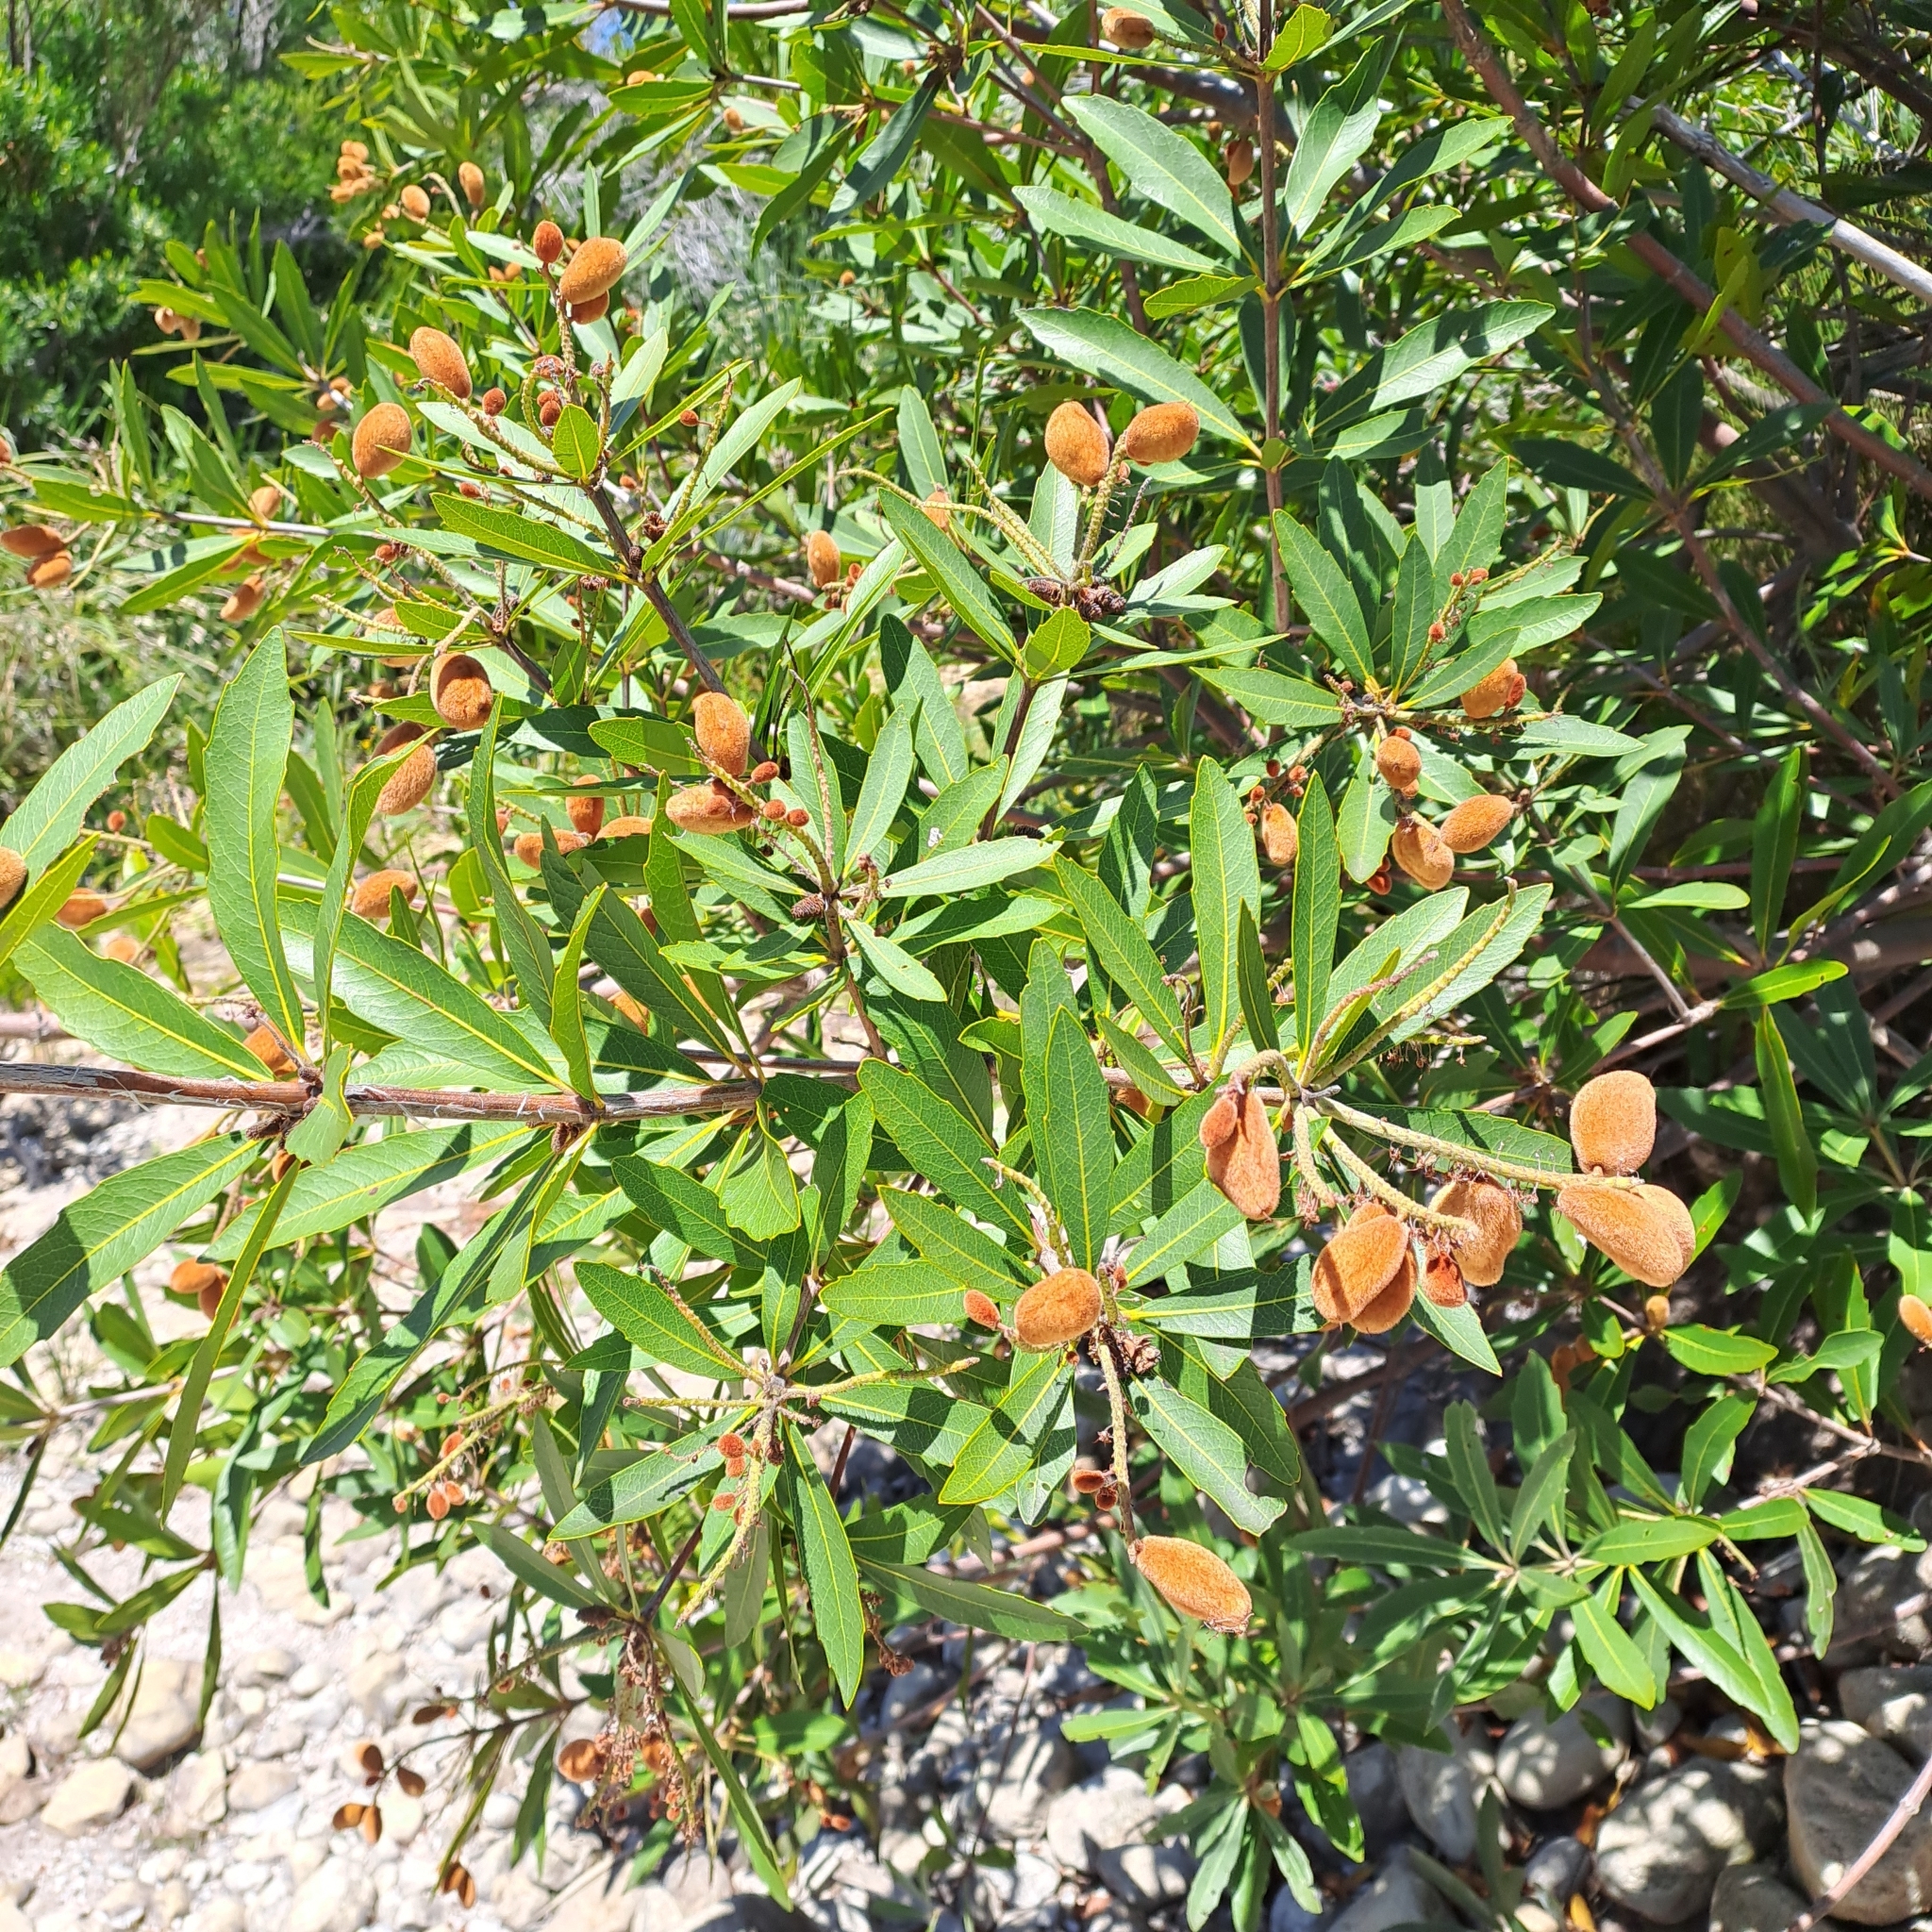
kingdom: Plantae
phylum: Tracheophyta
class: Magnoliopsida
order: Proteales
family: Proteaceae
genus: Brabejum
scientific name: Brabejum stellatifolium
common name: Wild almond
